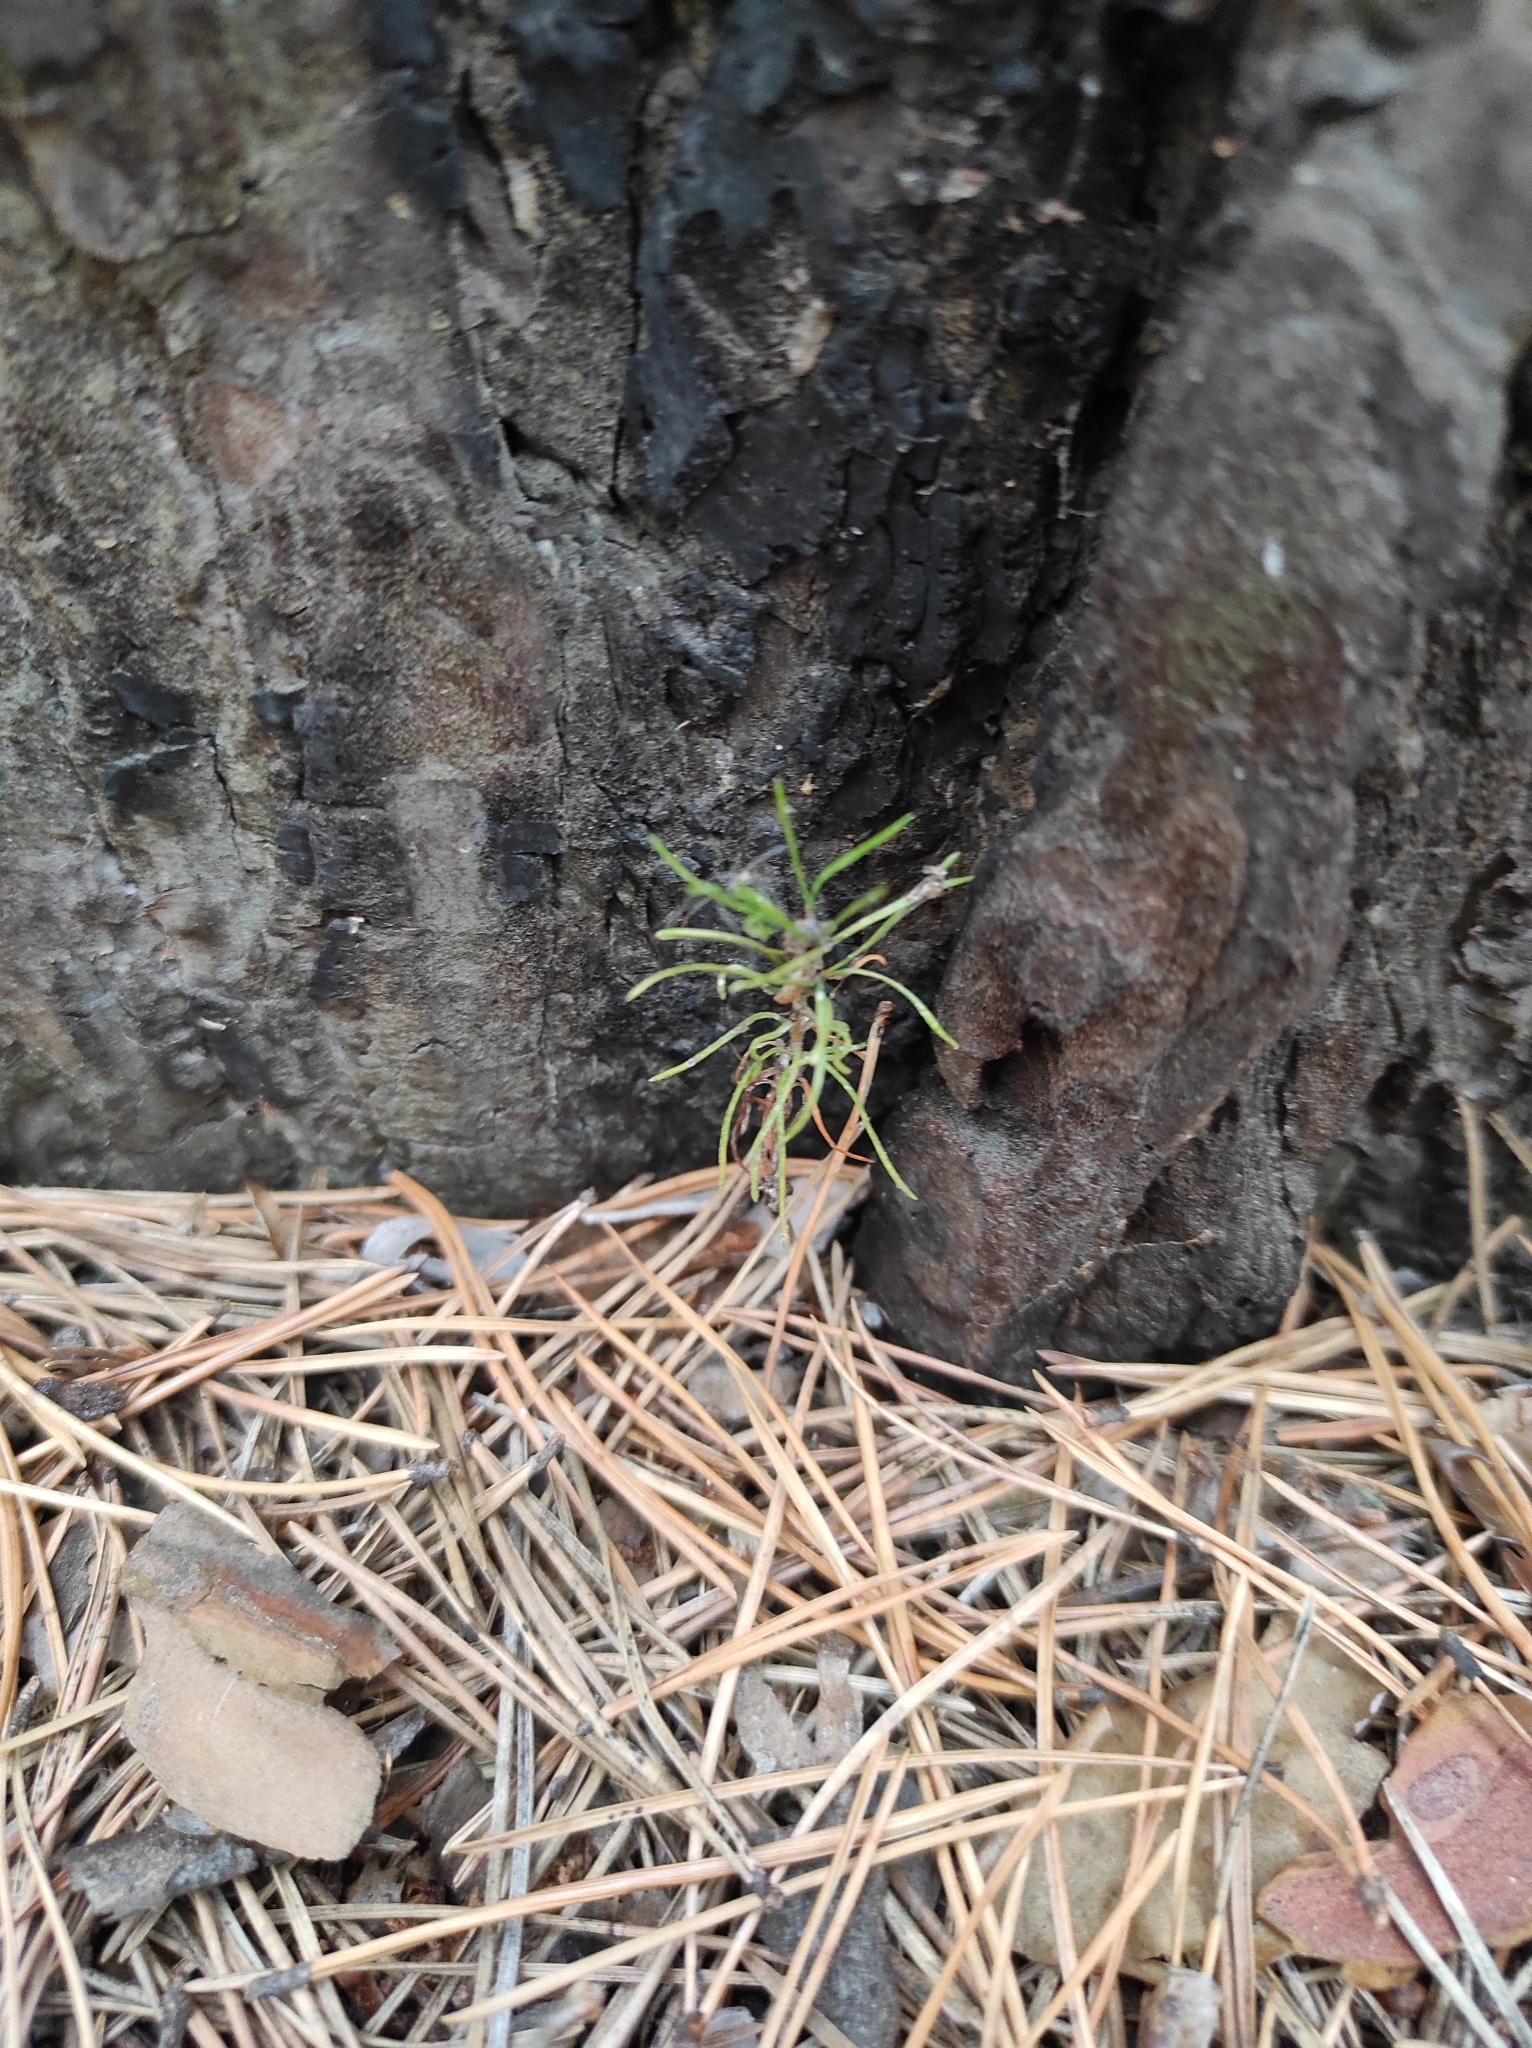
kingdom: Plantae
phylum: Tracheophyta
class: Pinopsida
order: Pinales
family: Pinaceae
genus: Pinus
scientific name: Pinus sylvestris
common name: Scots pine
